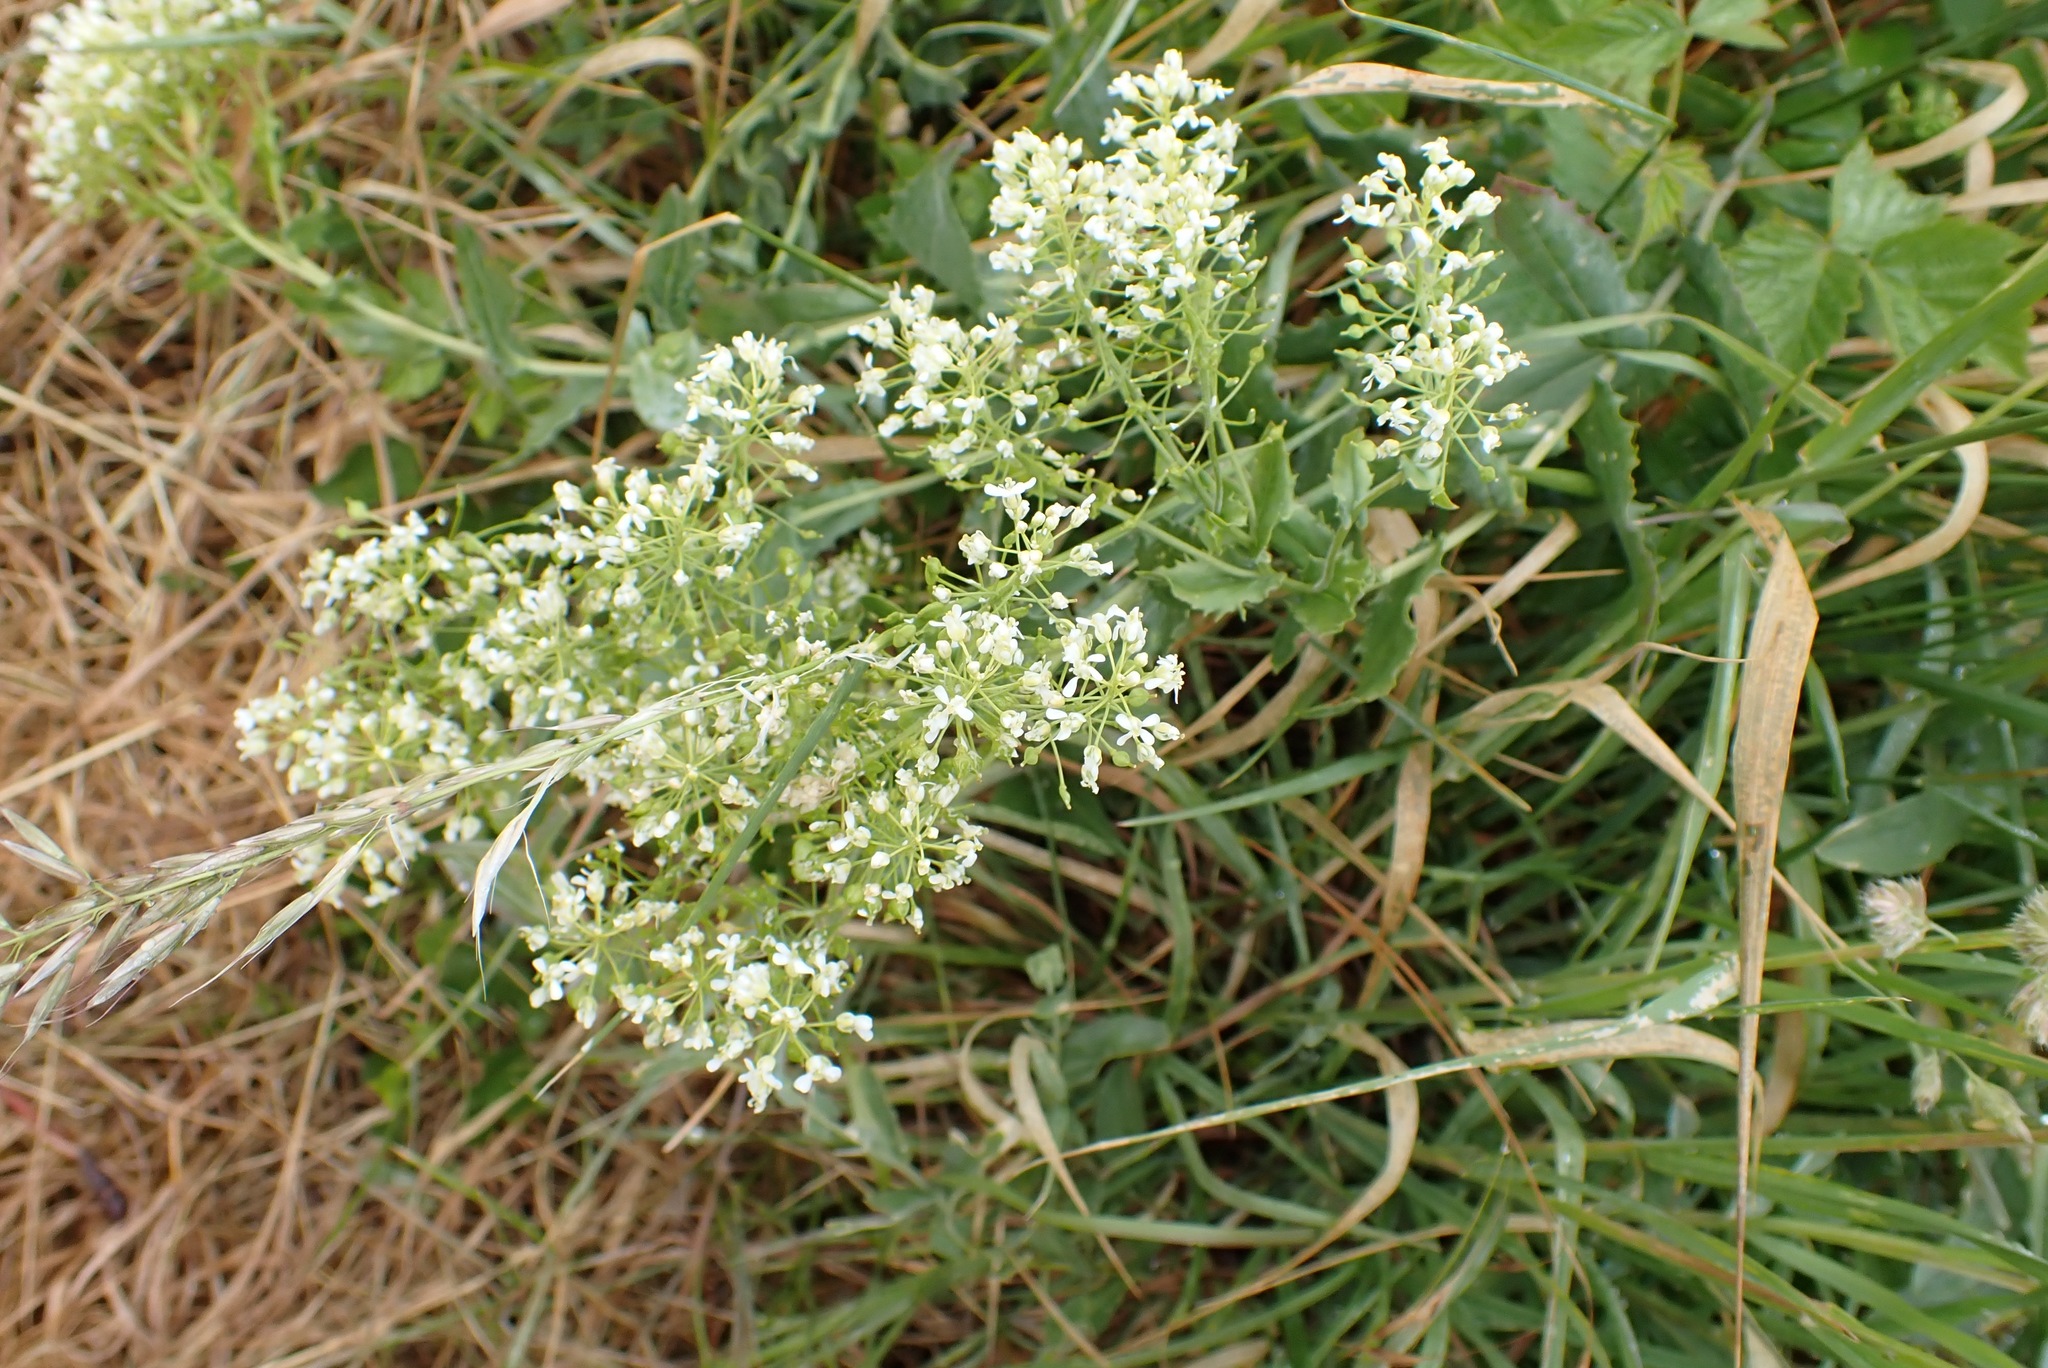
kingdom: Plantae
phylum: Tracheophyta
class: Magnoliopsida
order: Brassicales
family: Brassicaceae
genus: Lepidium
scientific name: Lepidium draba
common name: Hoary cress
